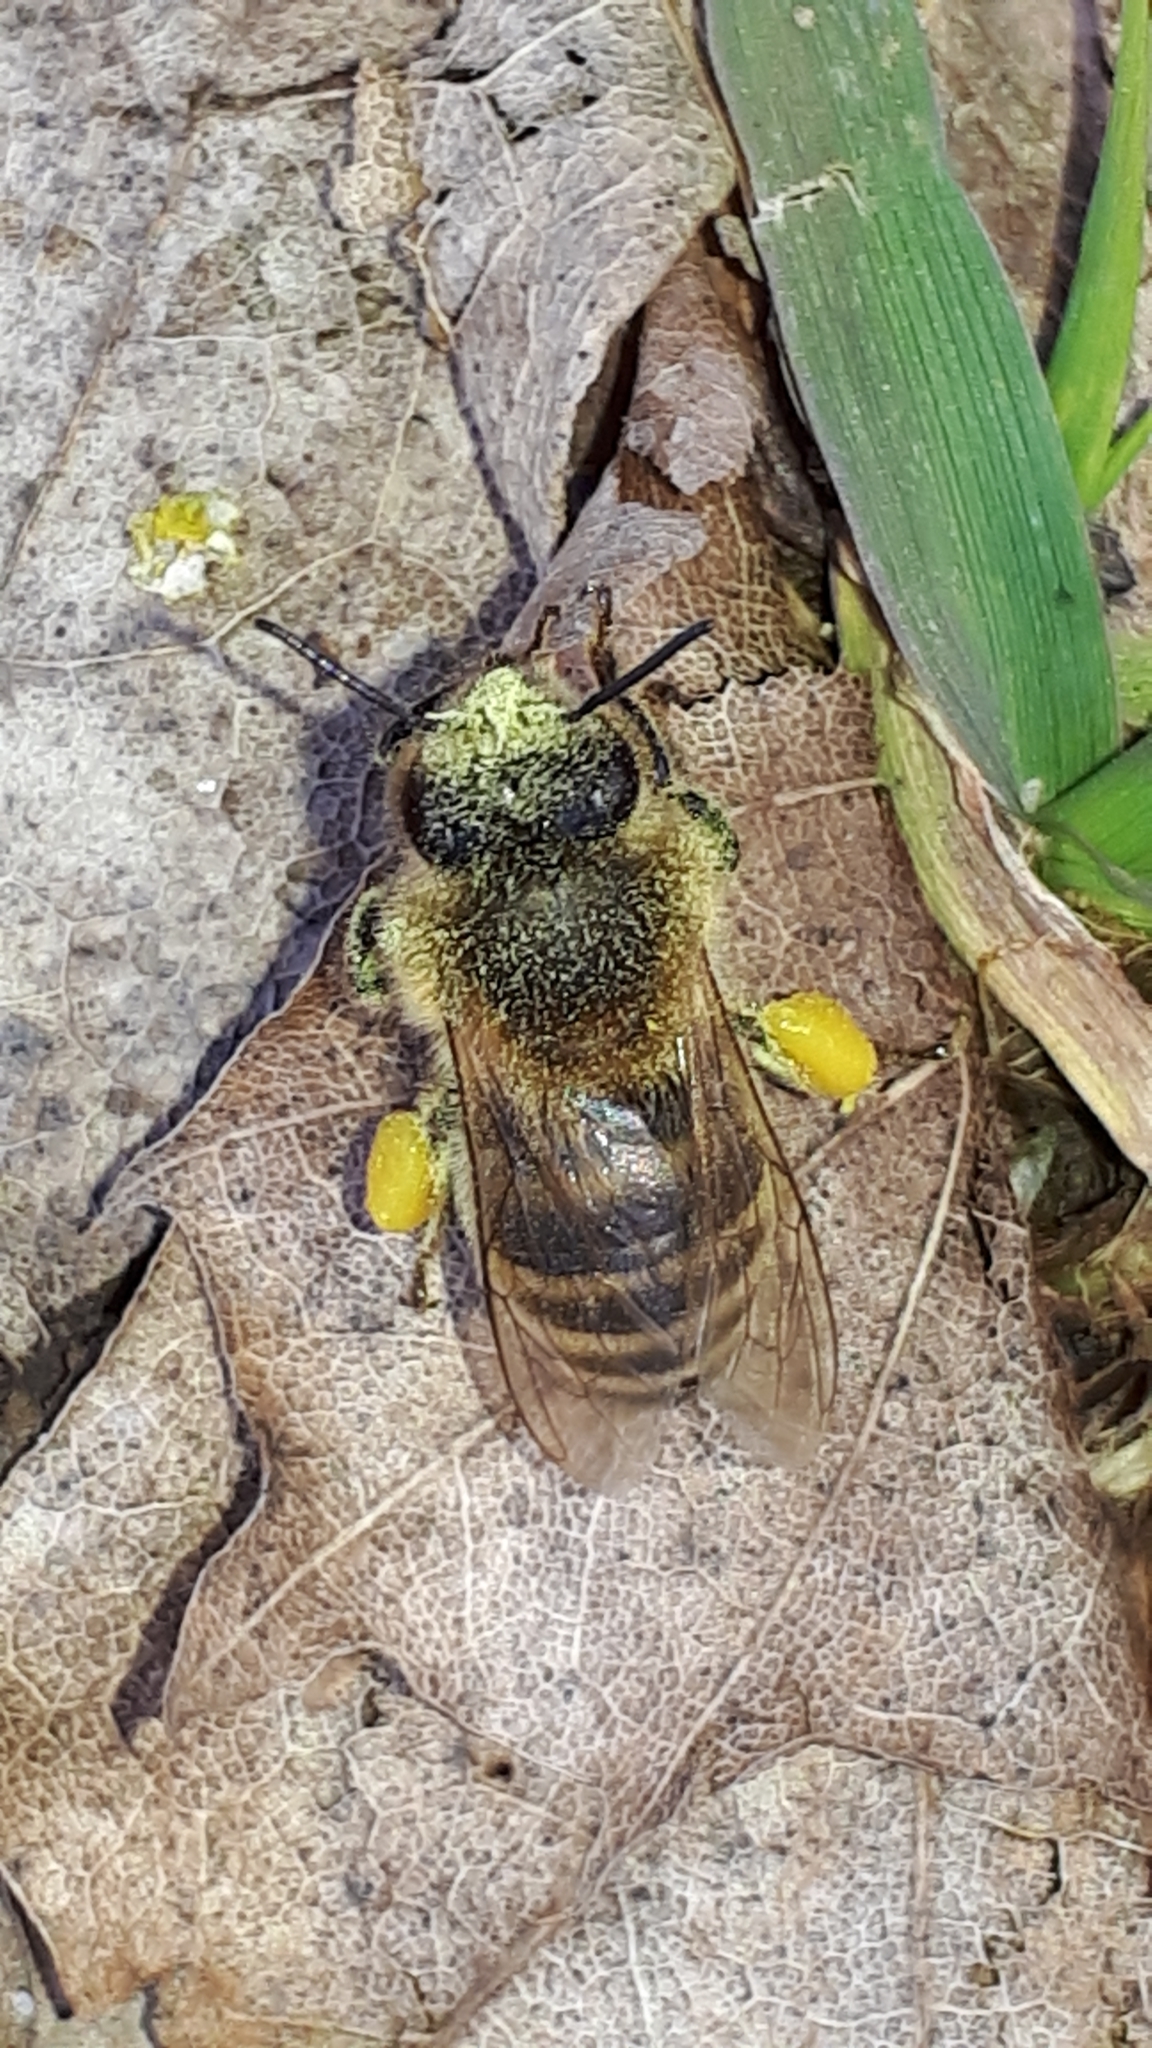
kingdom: Animalia
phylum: Arthropoda
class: Insecta
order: Hymenoptera
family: Apidae
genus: Apis
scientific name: Apis mellifera
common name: Honey bee
